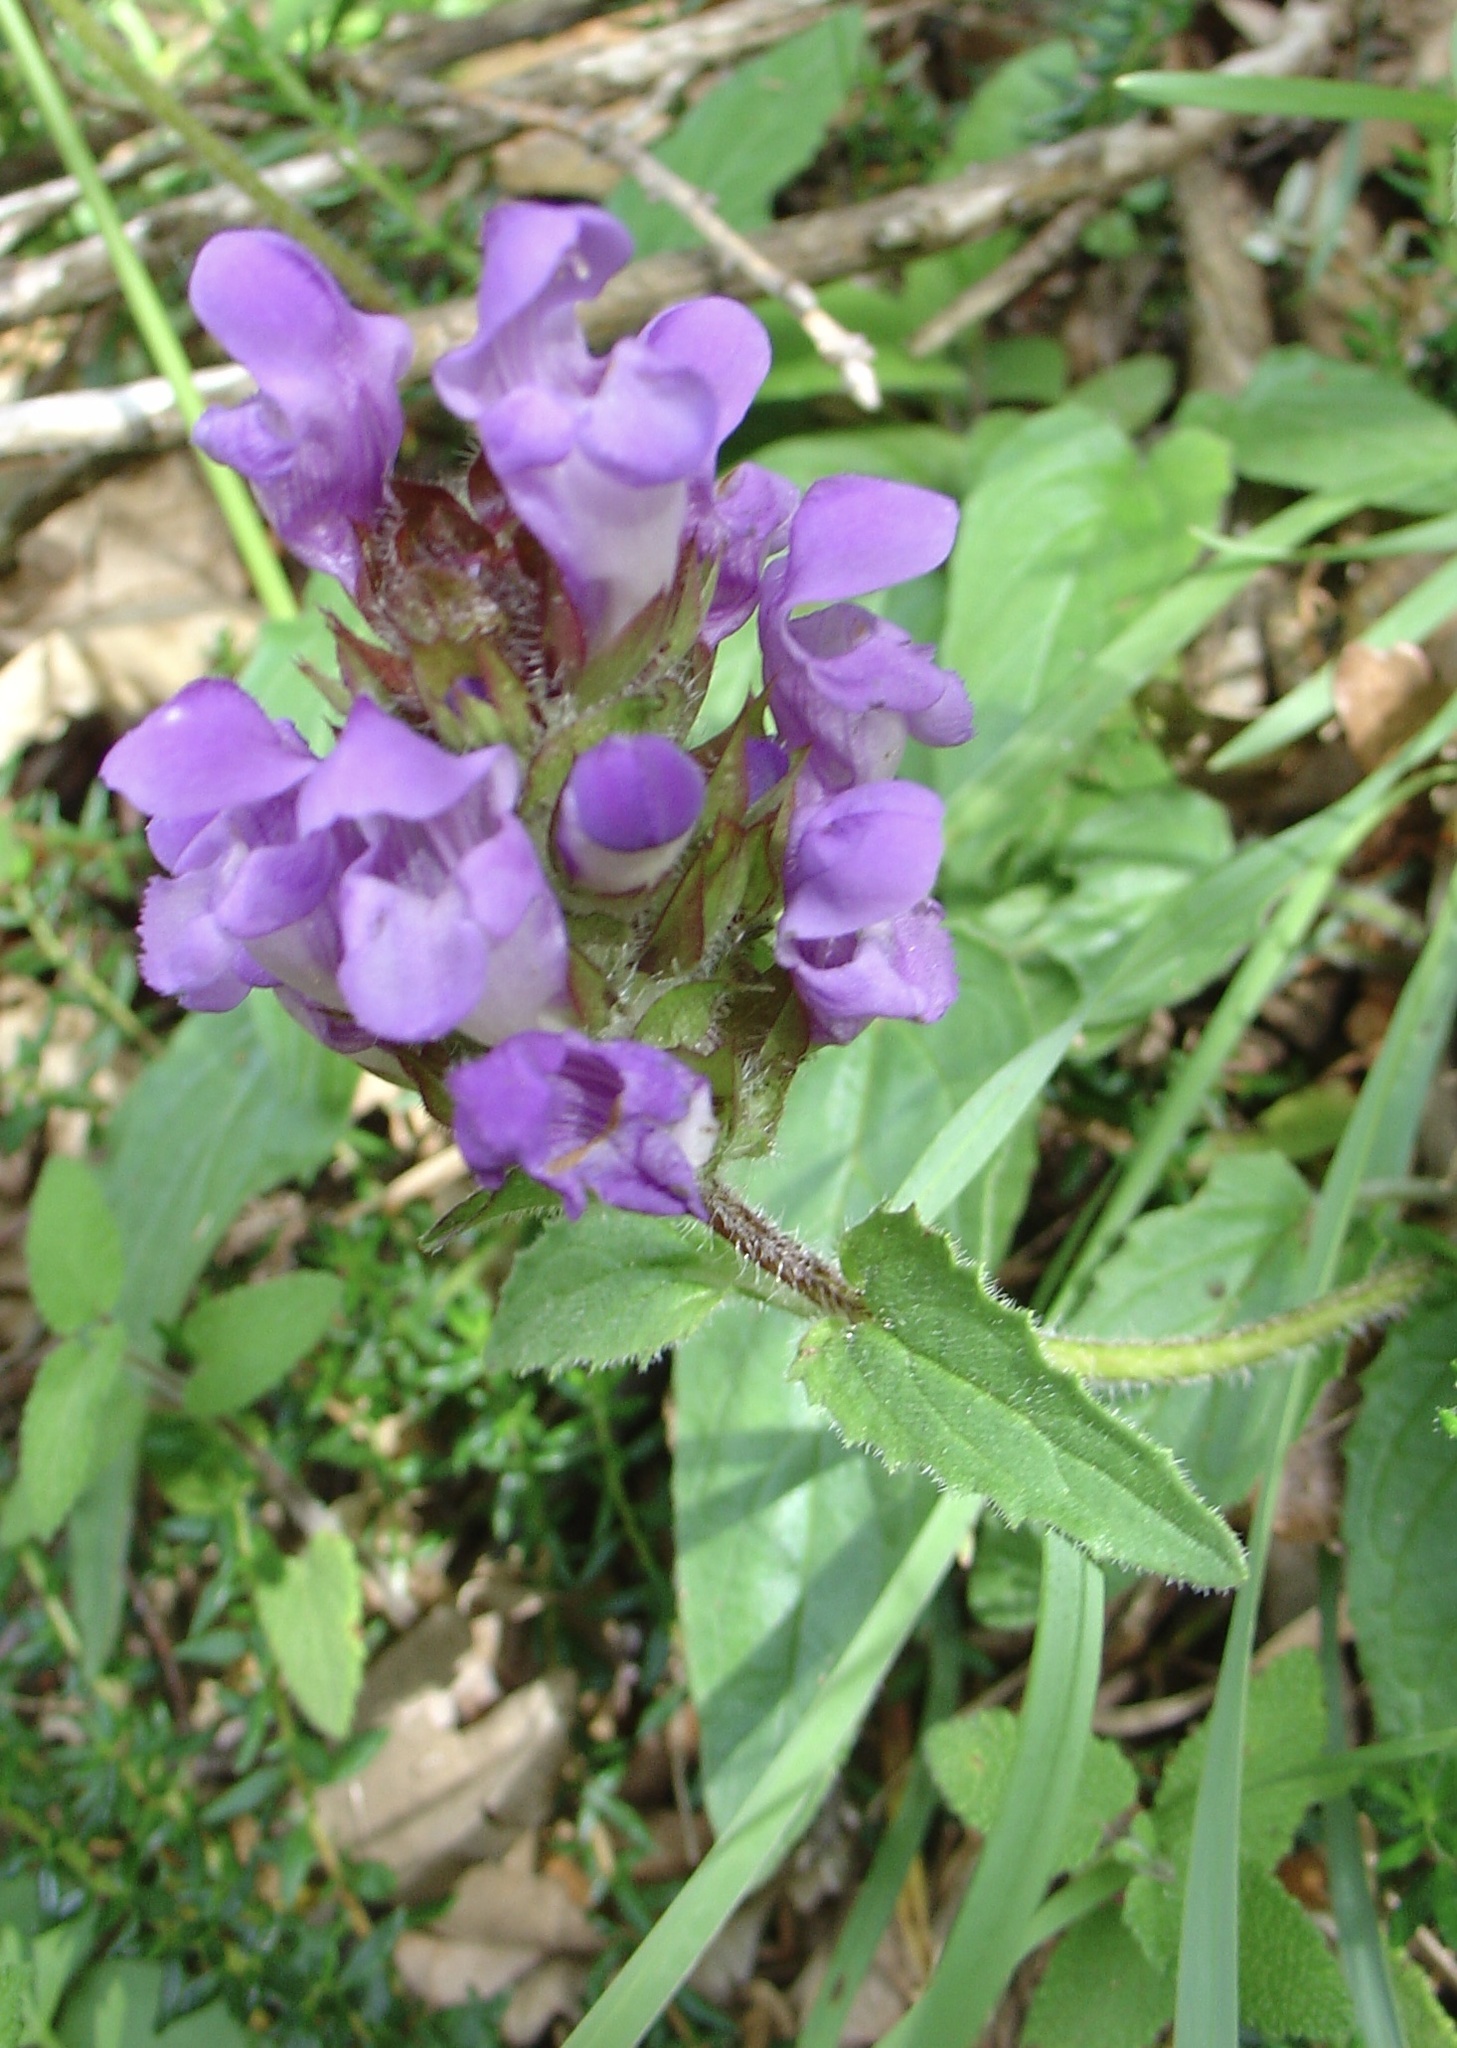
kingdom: Plantae
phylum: Tracheophyta
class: Magnoliopsida
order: Lamiales
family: Lamiaceae
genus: Prunella
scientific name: Prunella grandiflora
